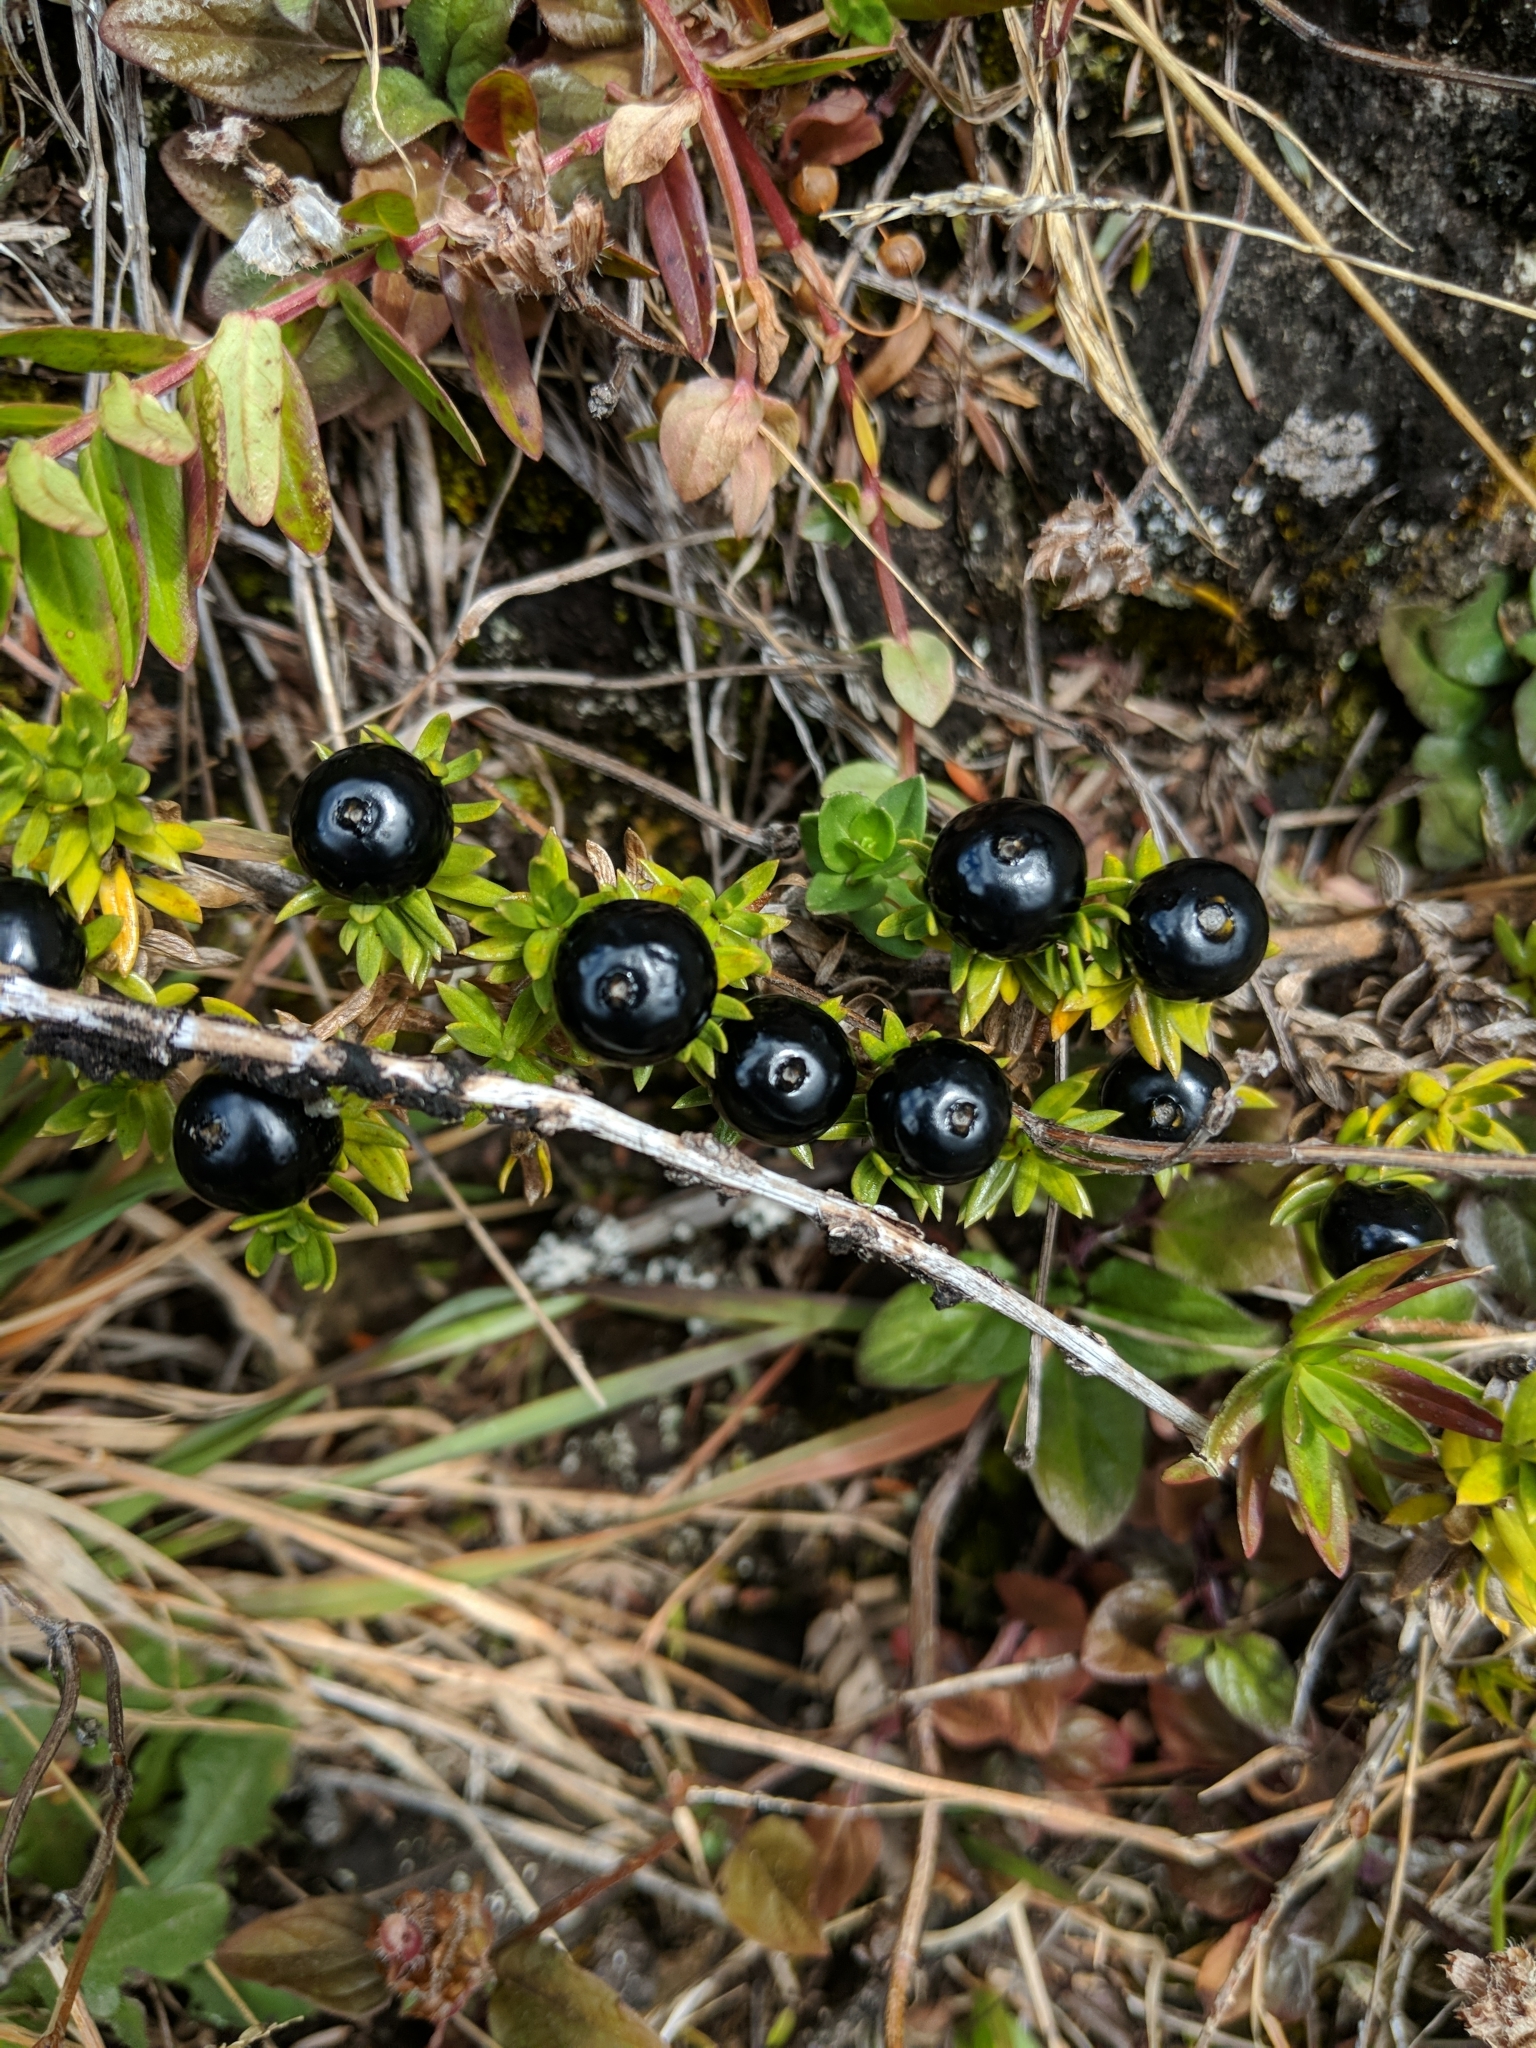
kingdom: Plantae
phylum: Tracheophyta
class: Magnoliopsida
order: Gentianales
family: Rubiaceae
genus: Coprosma
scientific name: Coprosma ernodeoides
